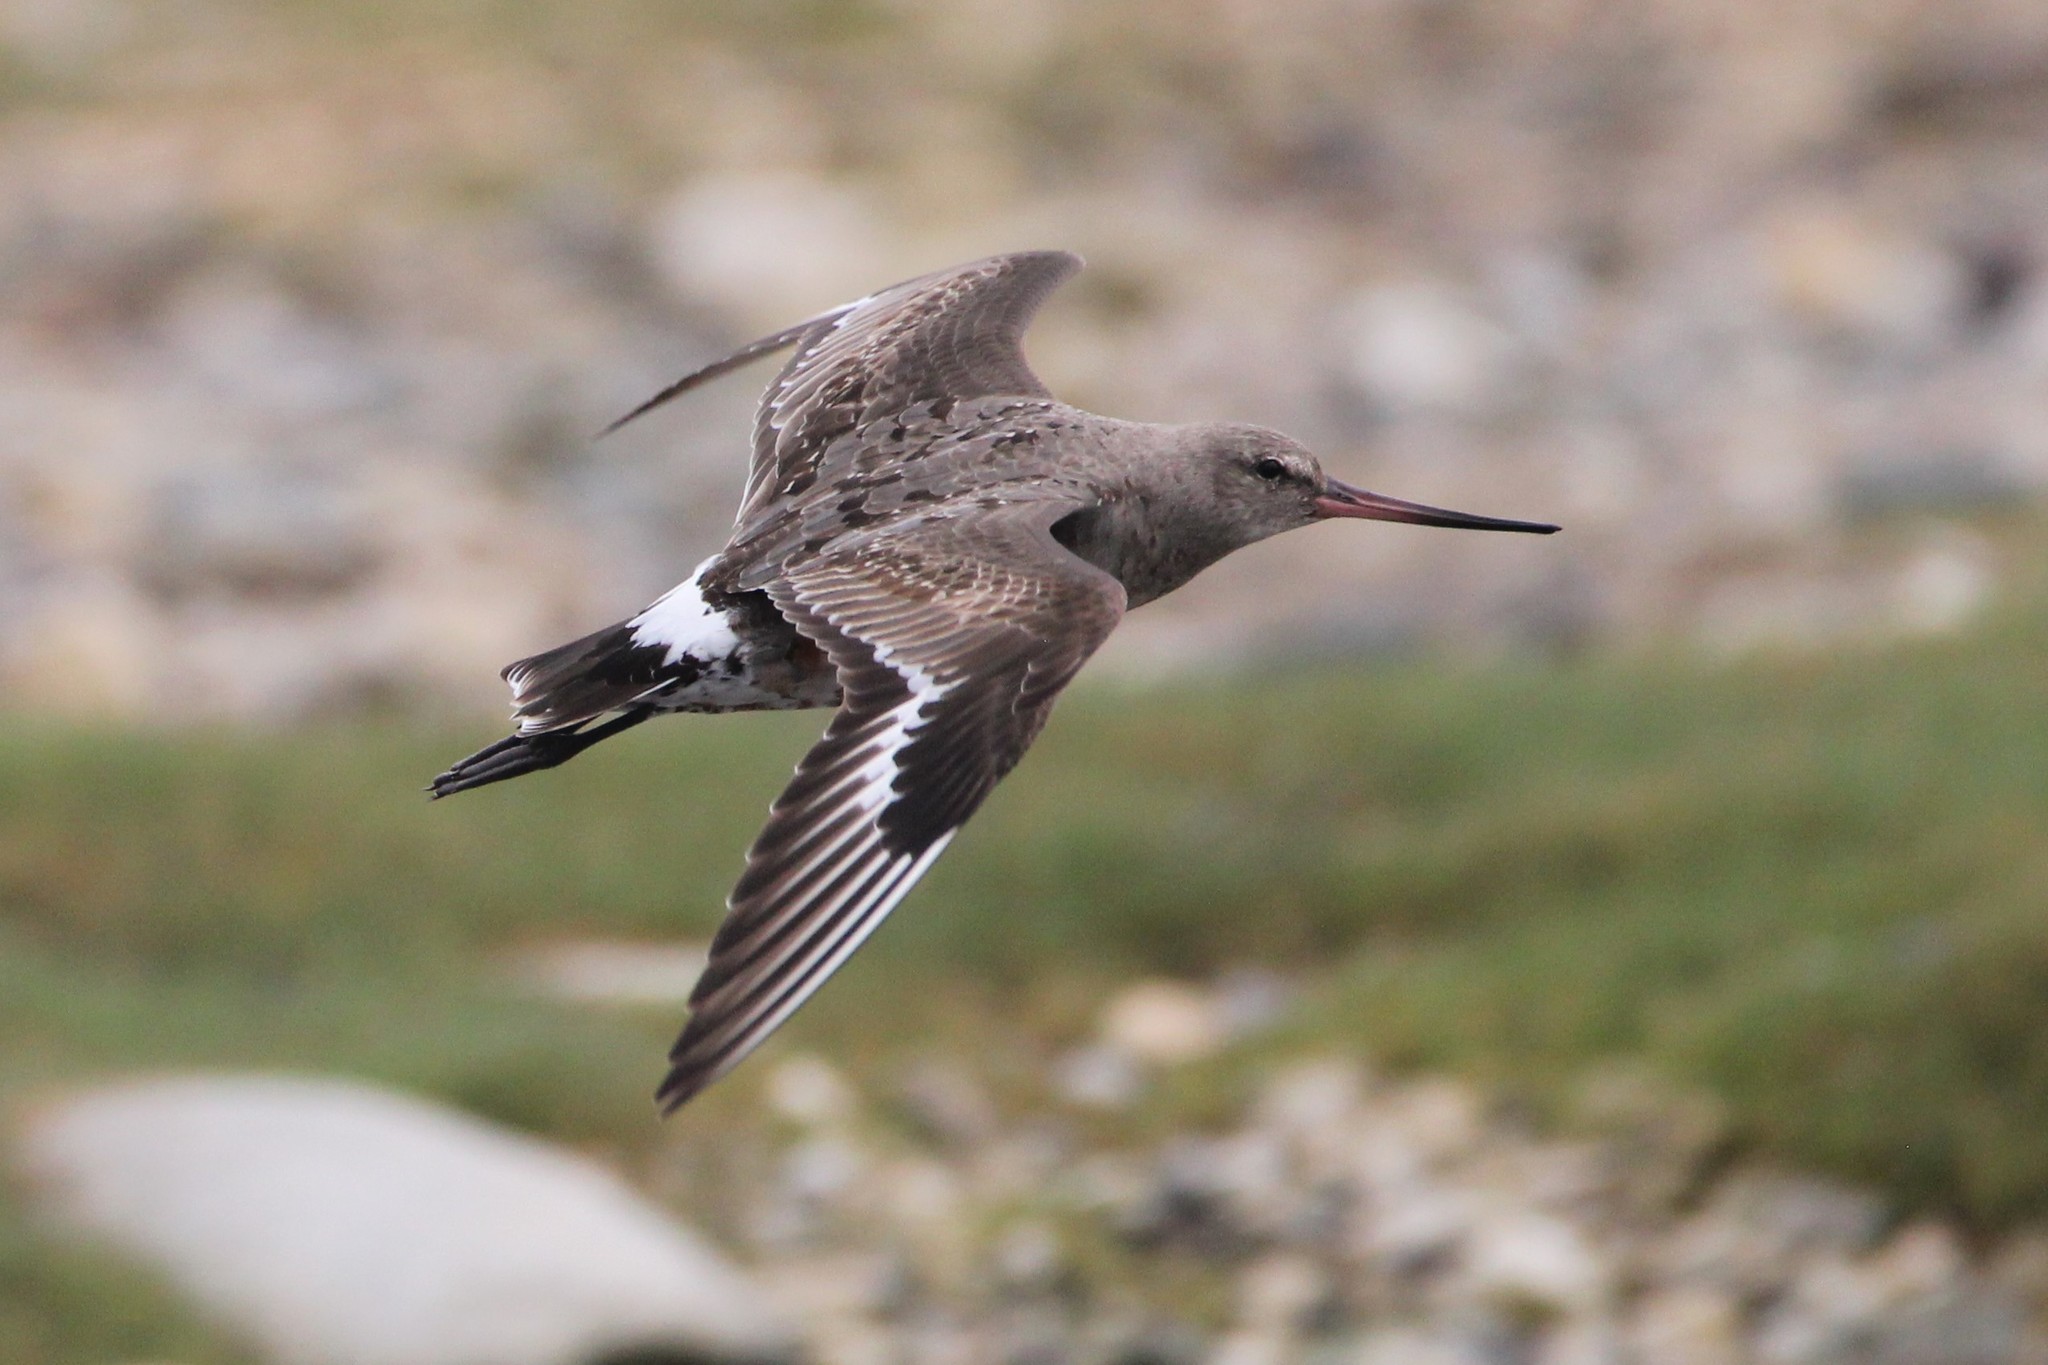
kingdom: Animalia
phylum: Chordata
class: Aves
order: Charadriiformes
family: Scolopacidae
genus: Limosa
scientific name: Limosa haemastica
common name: Hudsonian godwit
